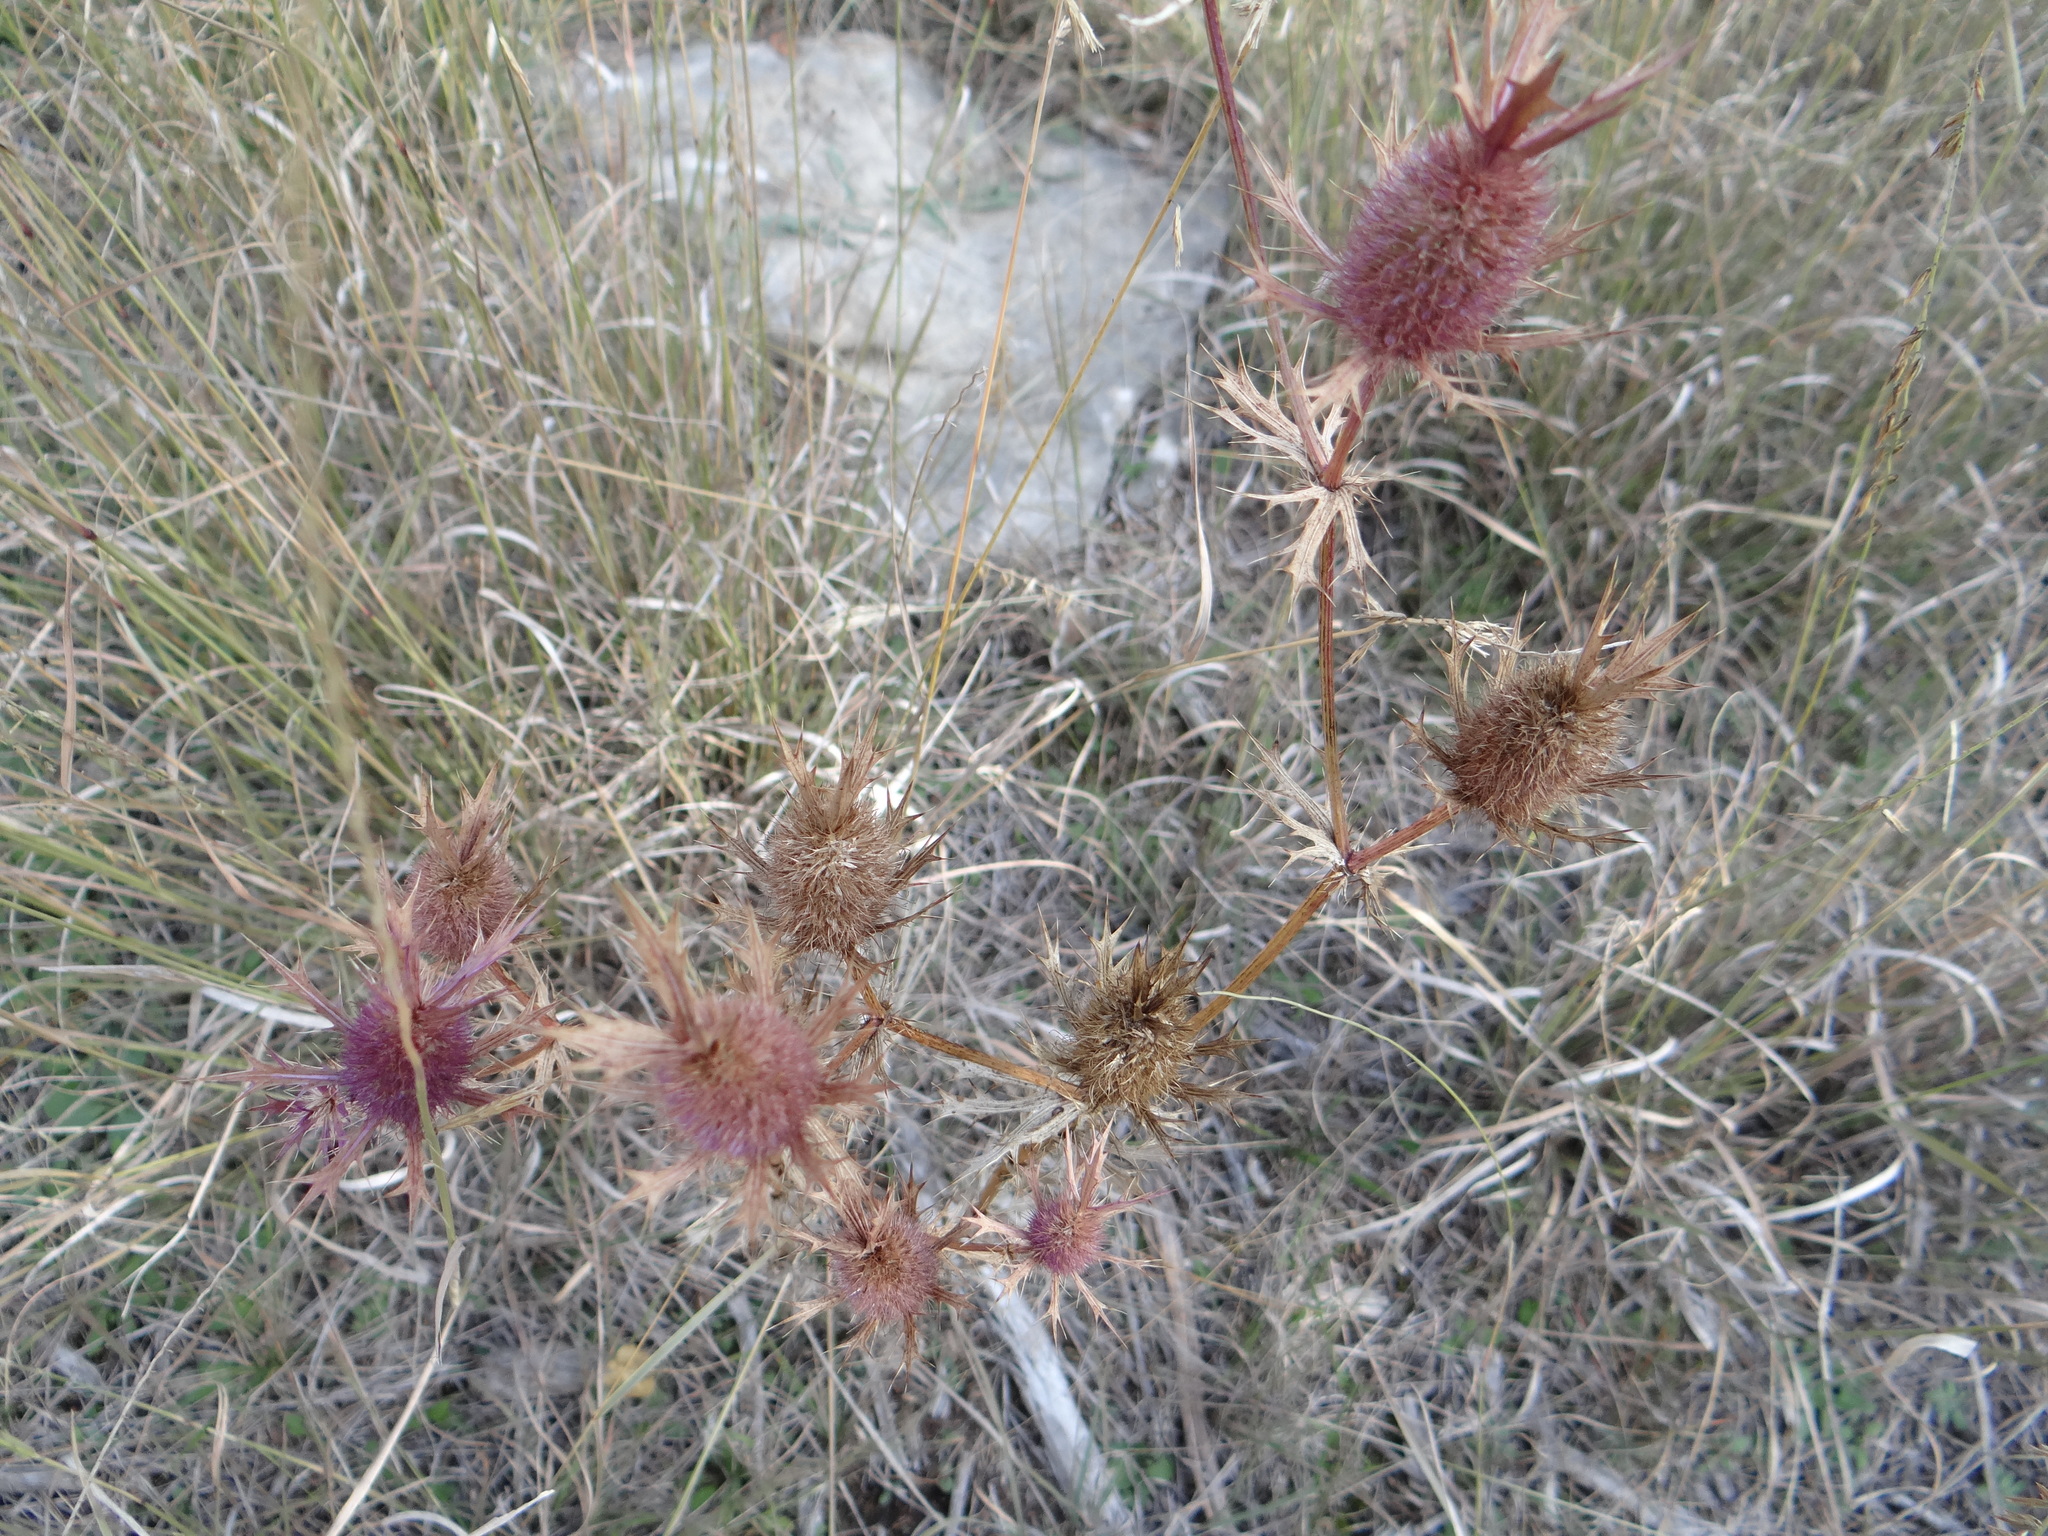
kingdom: Plantae
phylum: Tracheophyta
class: Magnoliopsida
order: Apiales
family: Apiaceae
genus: Eryngium
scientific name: Eryngium leavenworthii
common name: Leavenworth's eryngo
